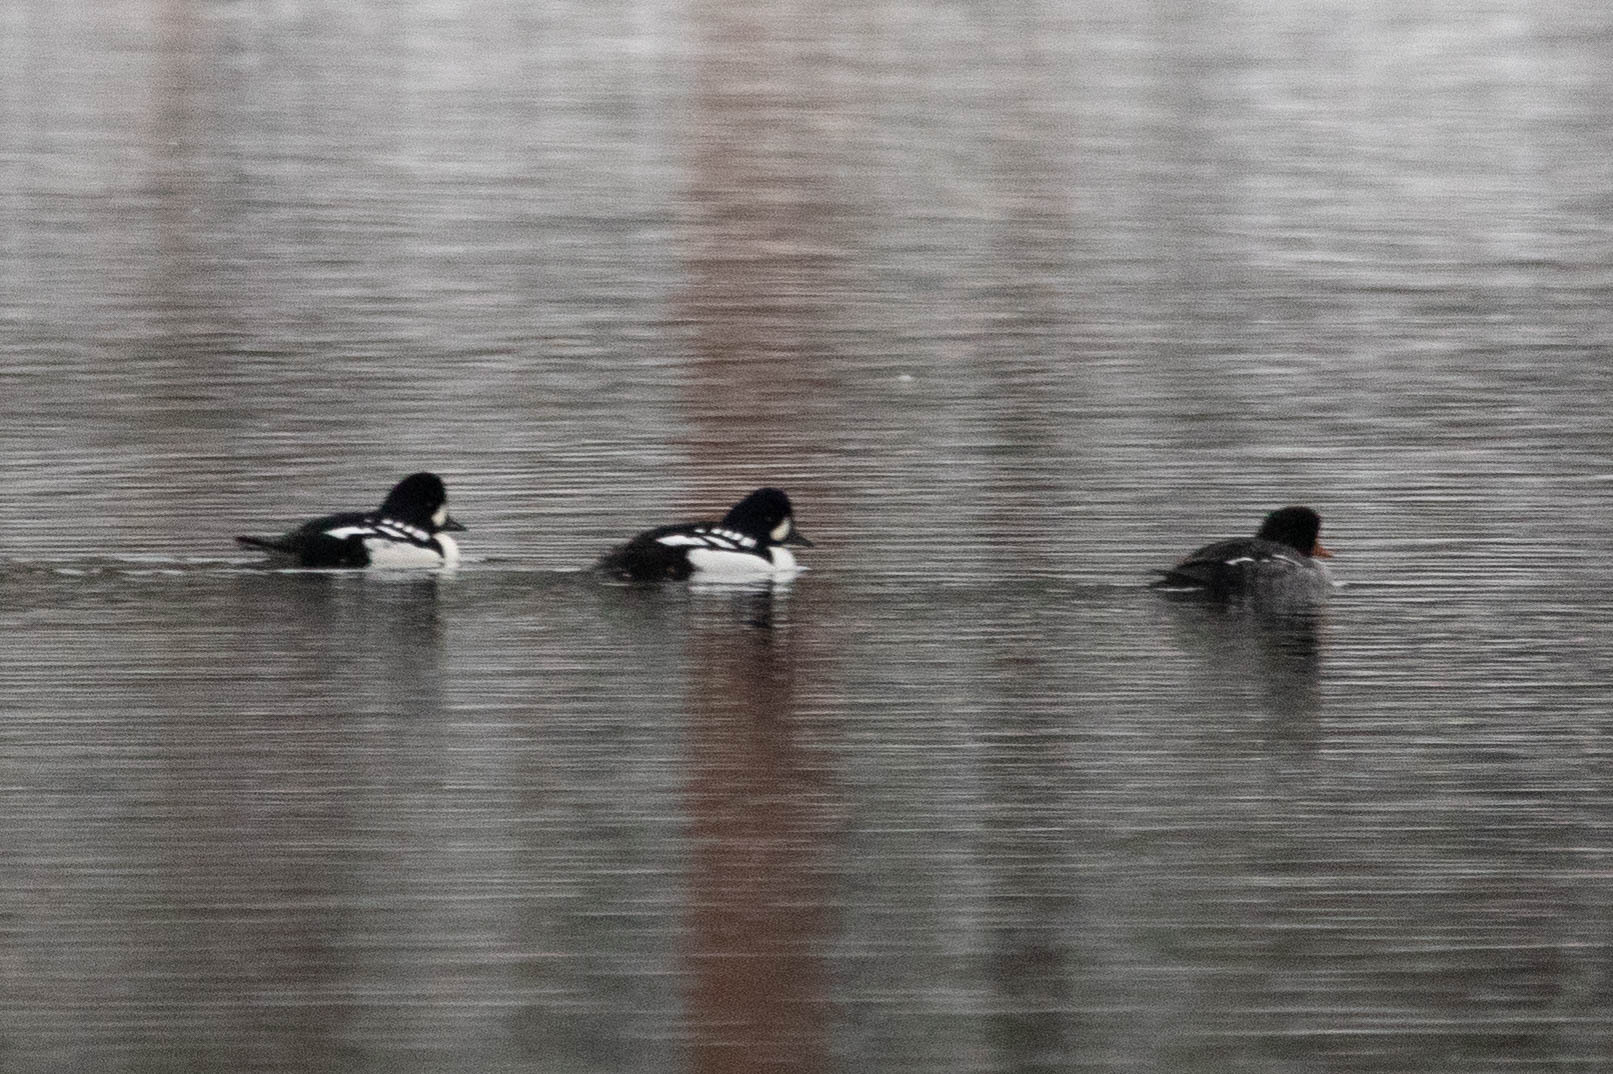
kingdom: Animalia
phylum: Chordata
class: Aves
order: Anseriformes
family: Anatidae
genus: Bucephala
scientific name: Bucephala islandica
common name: Barrow's goldeneye
